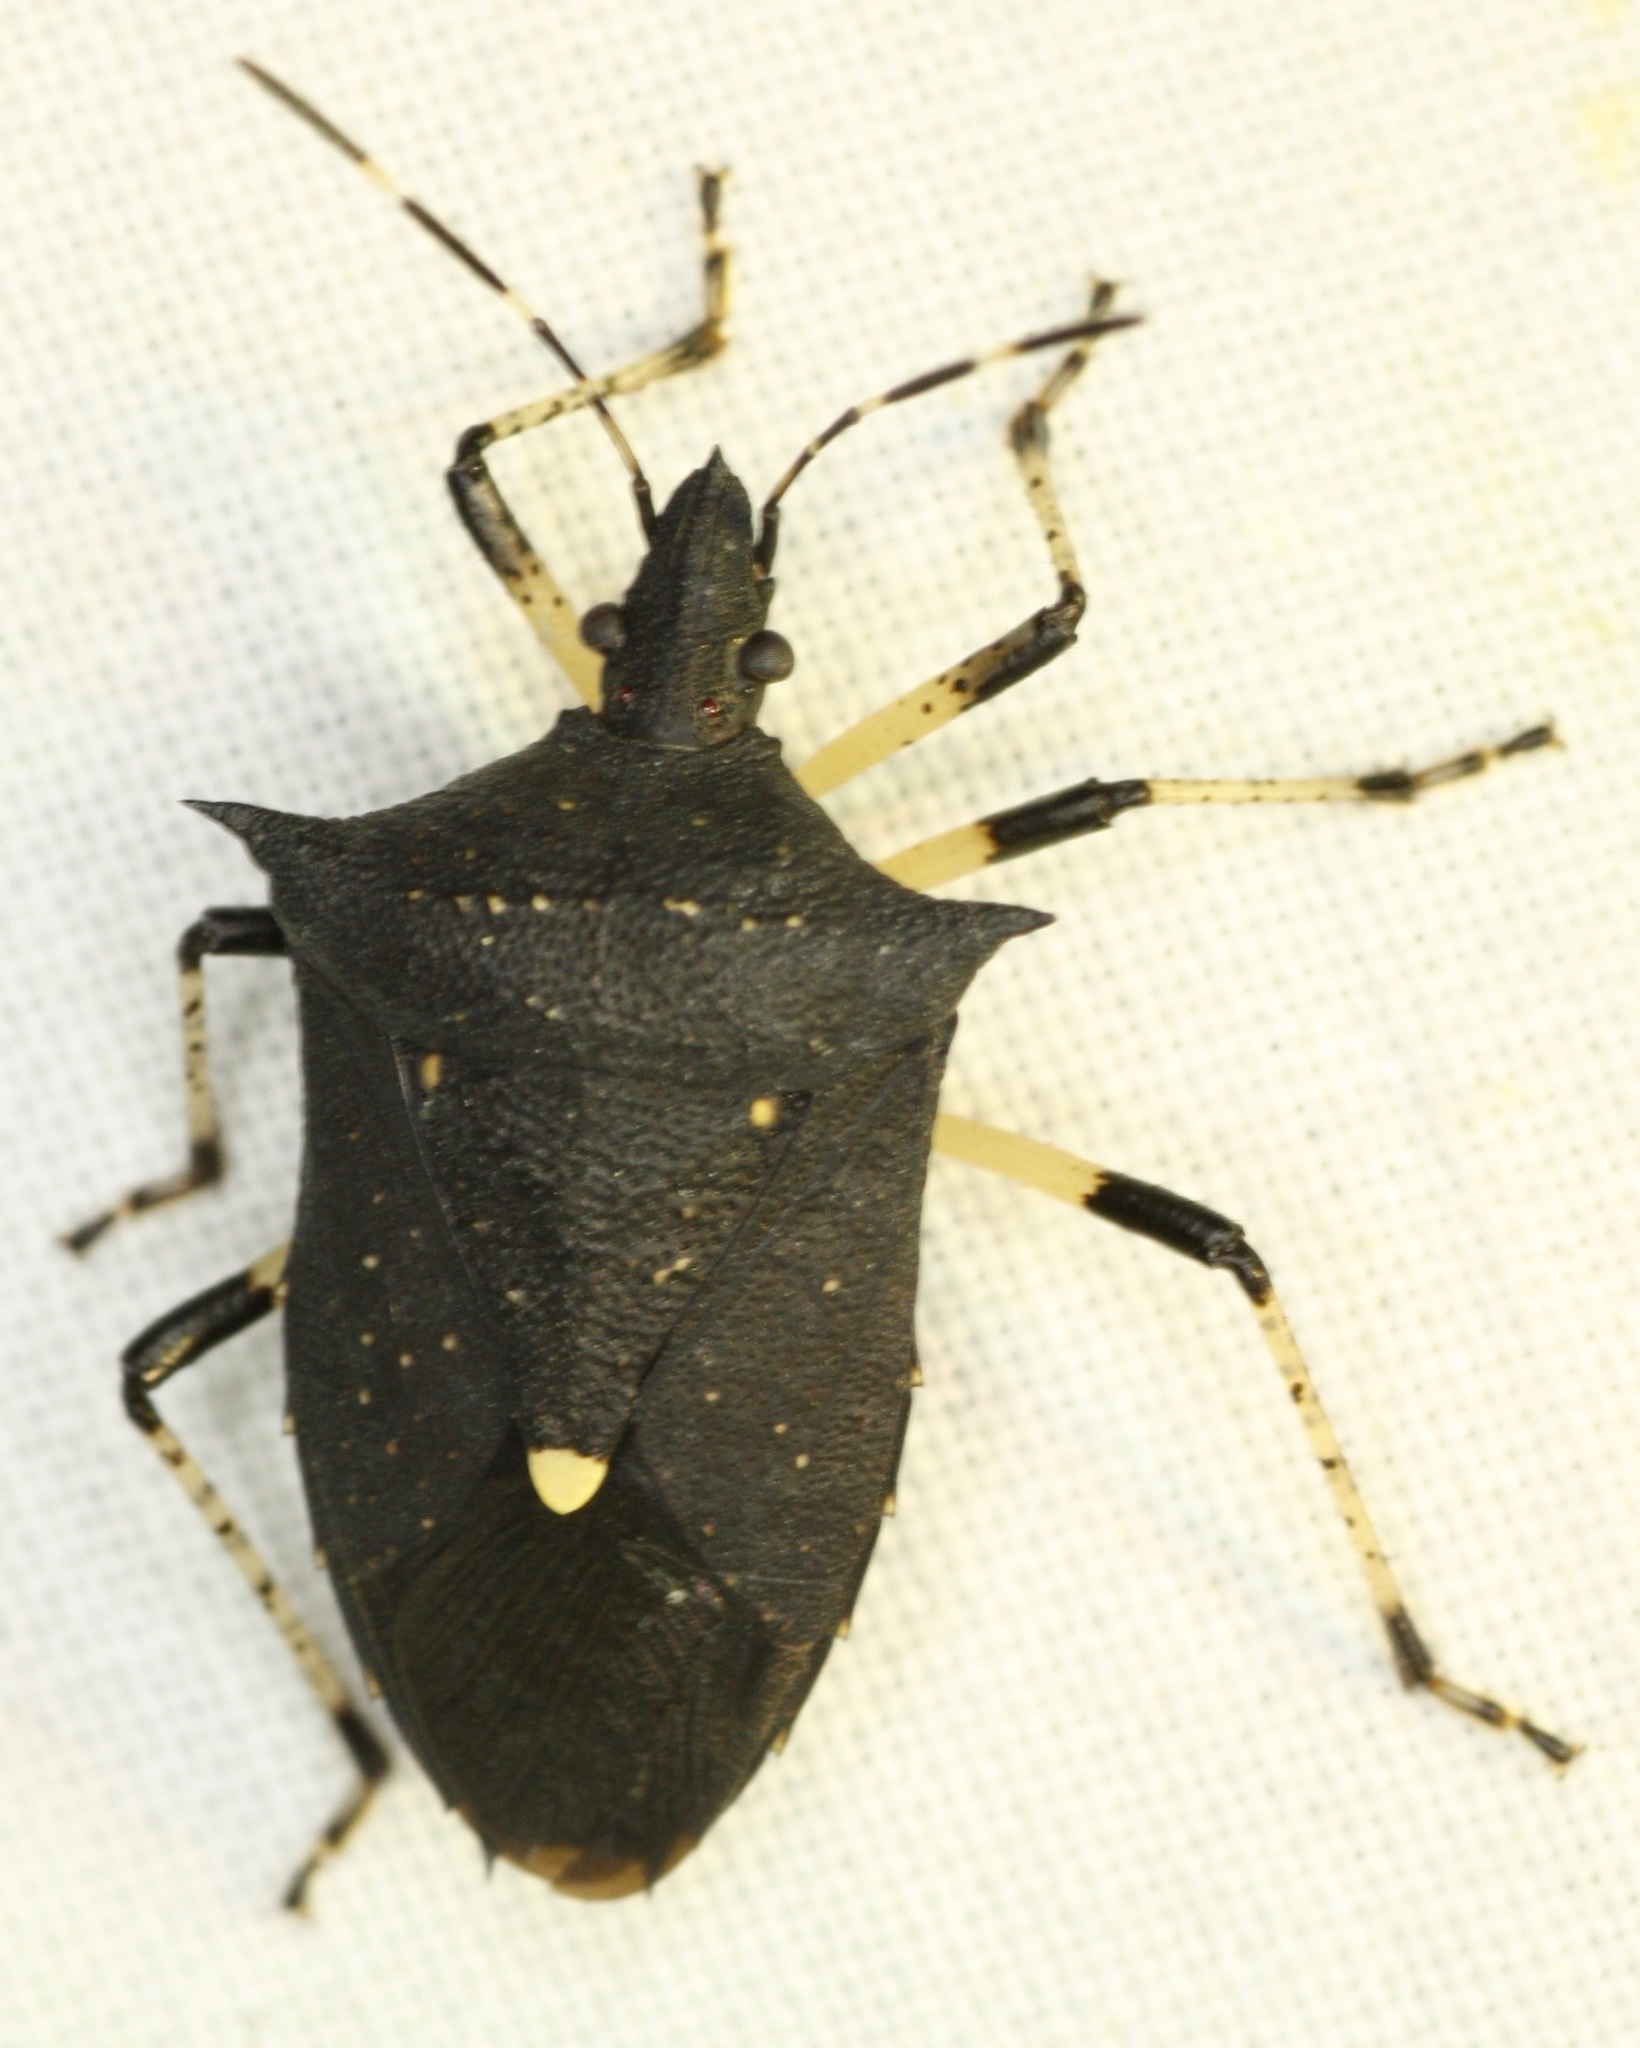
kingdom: Animalia
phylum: Arthropoda
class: Insecta
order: Hemiptera
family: Pentatomidae
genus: Proxys
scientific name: Proxys punctulatus
